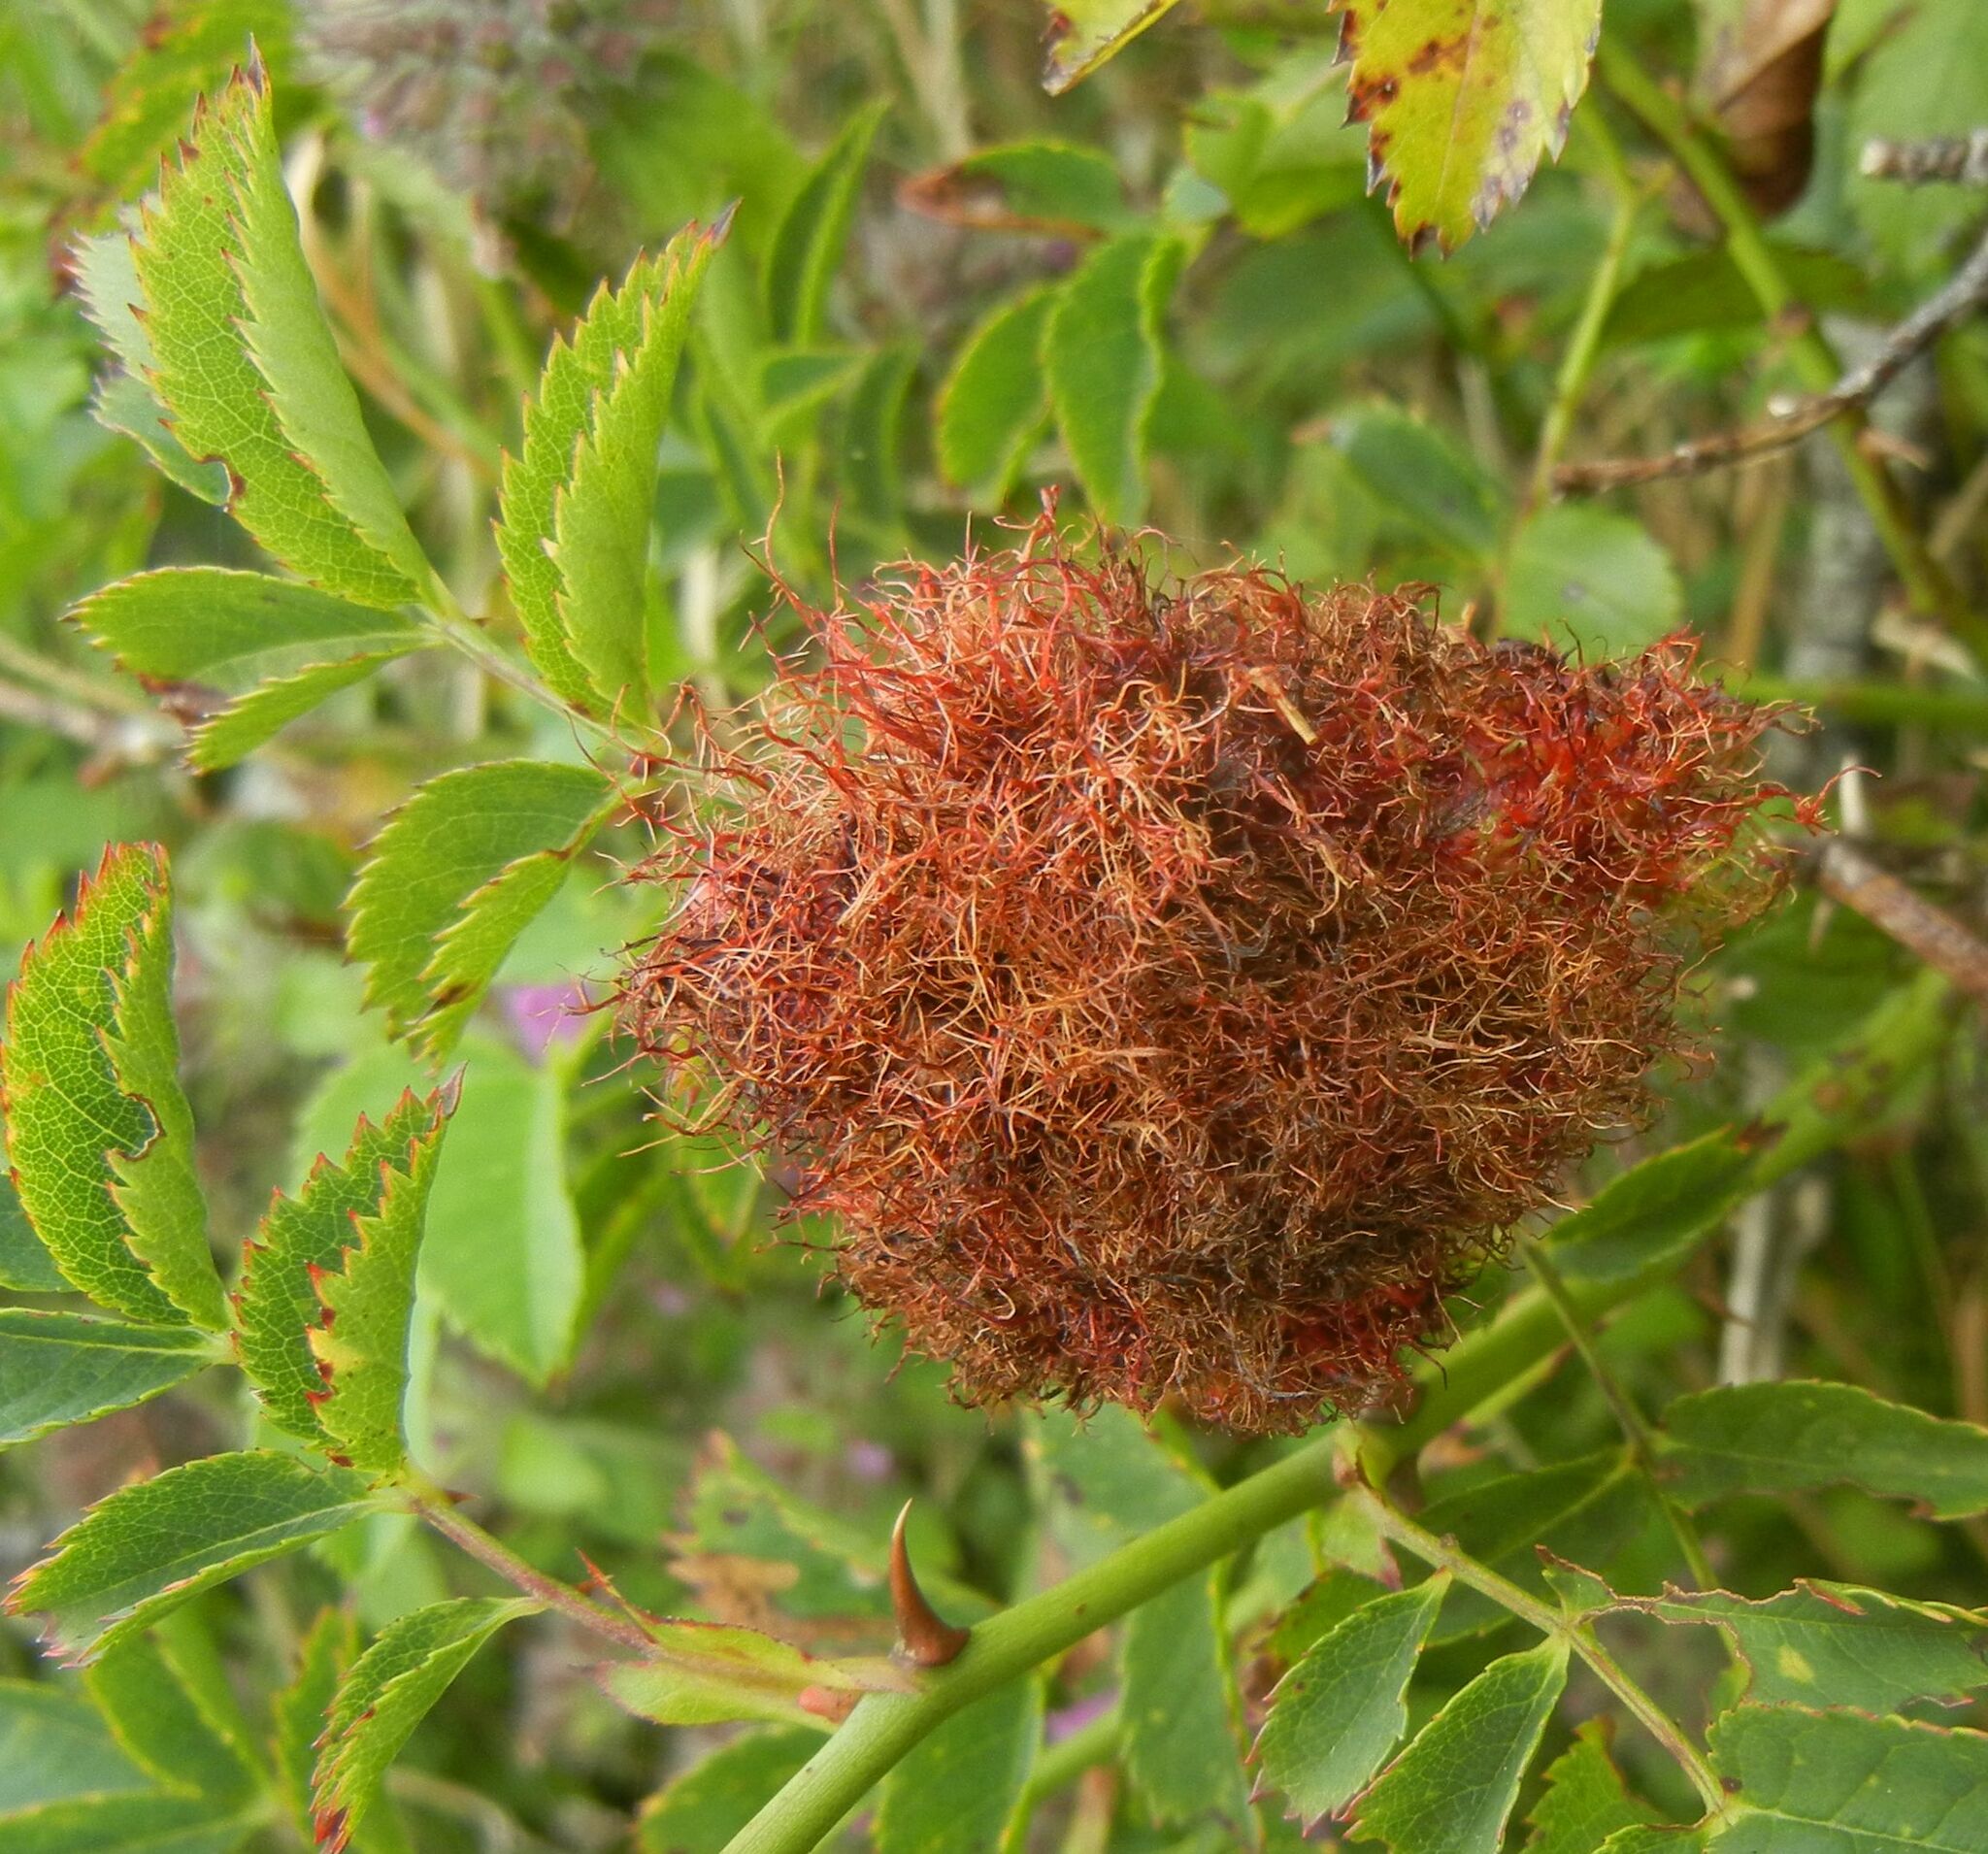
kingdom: Animalia
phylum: Arthropoda
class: Insecta
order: Hymenoptera
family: Cynipidae
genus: Diplolepis
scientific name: Diplolepis rosae
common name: Bedeguar gall
